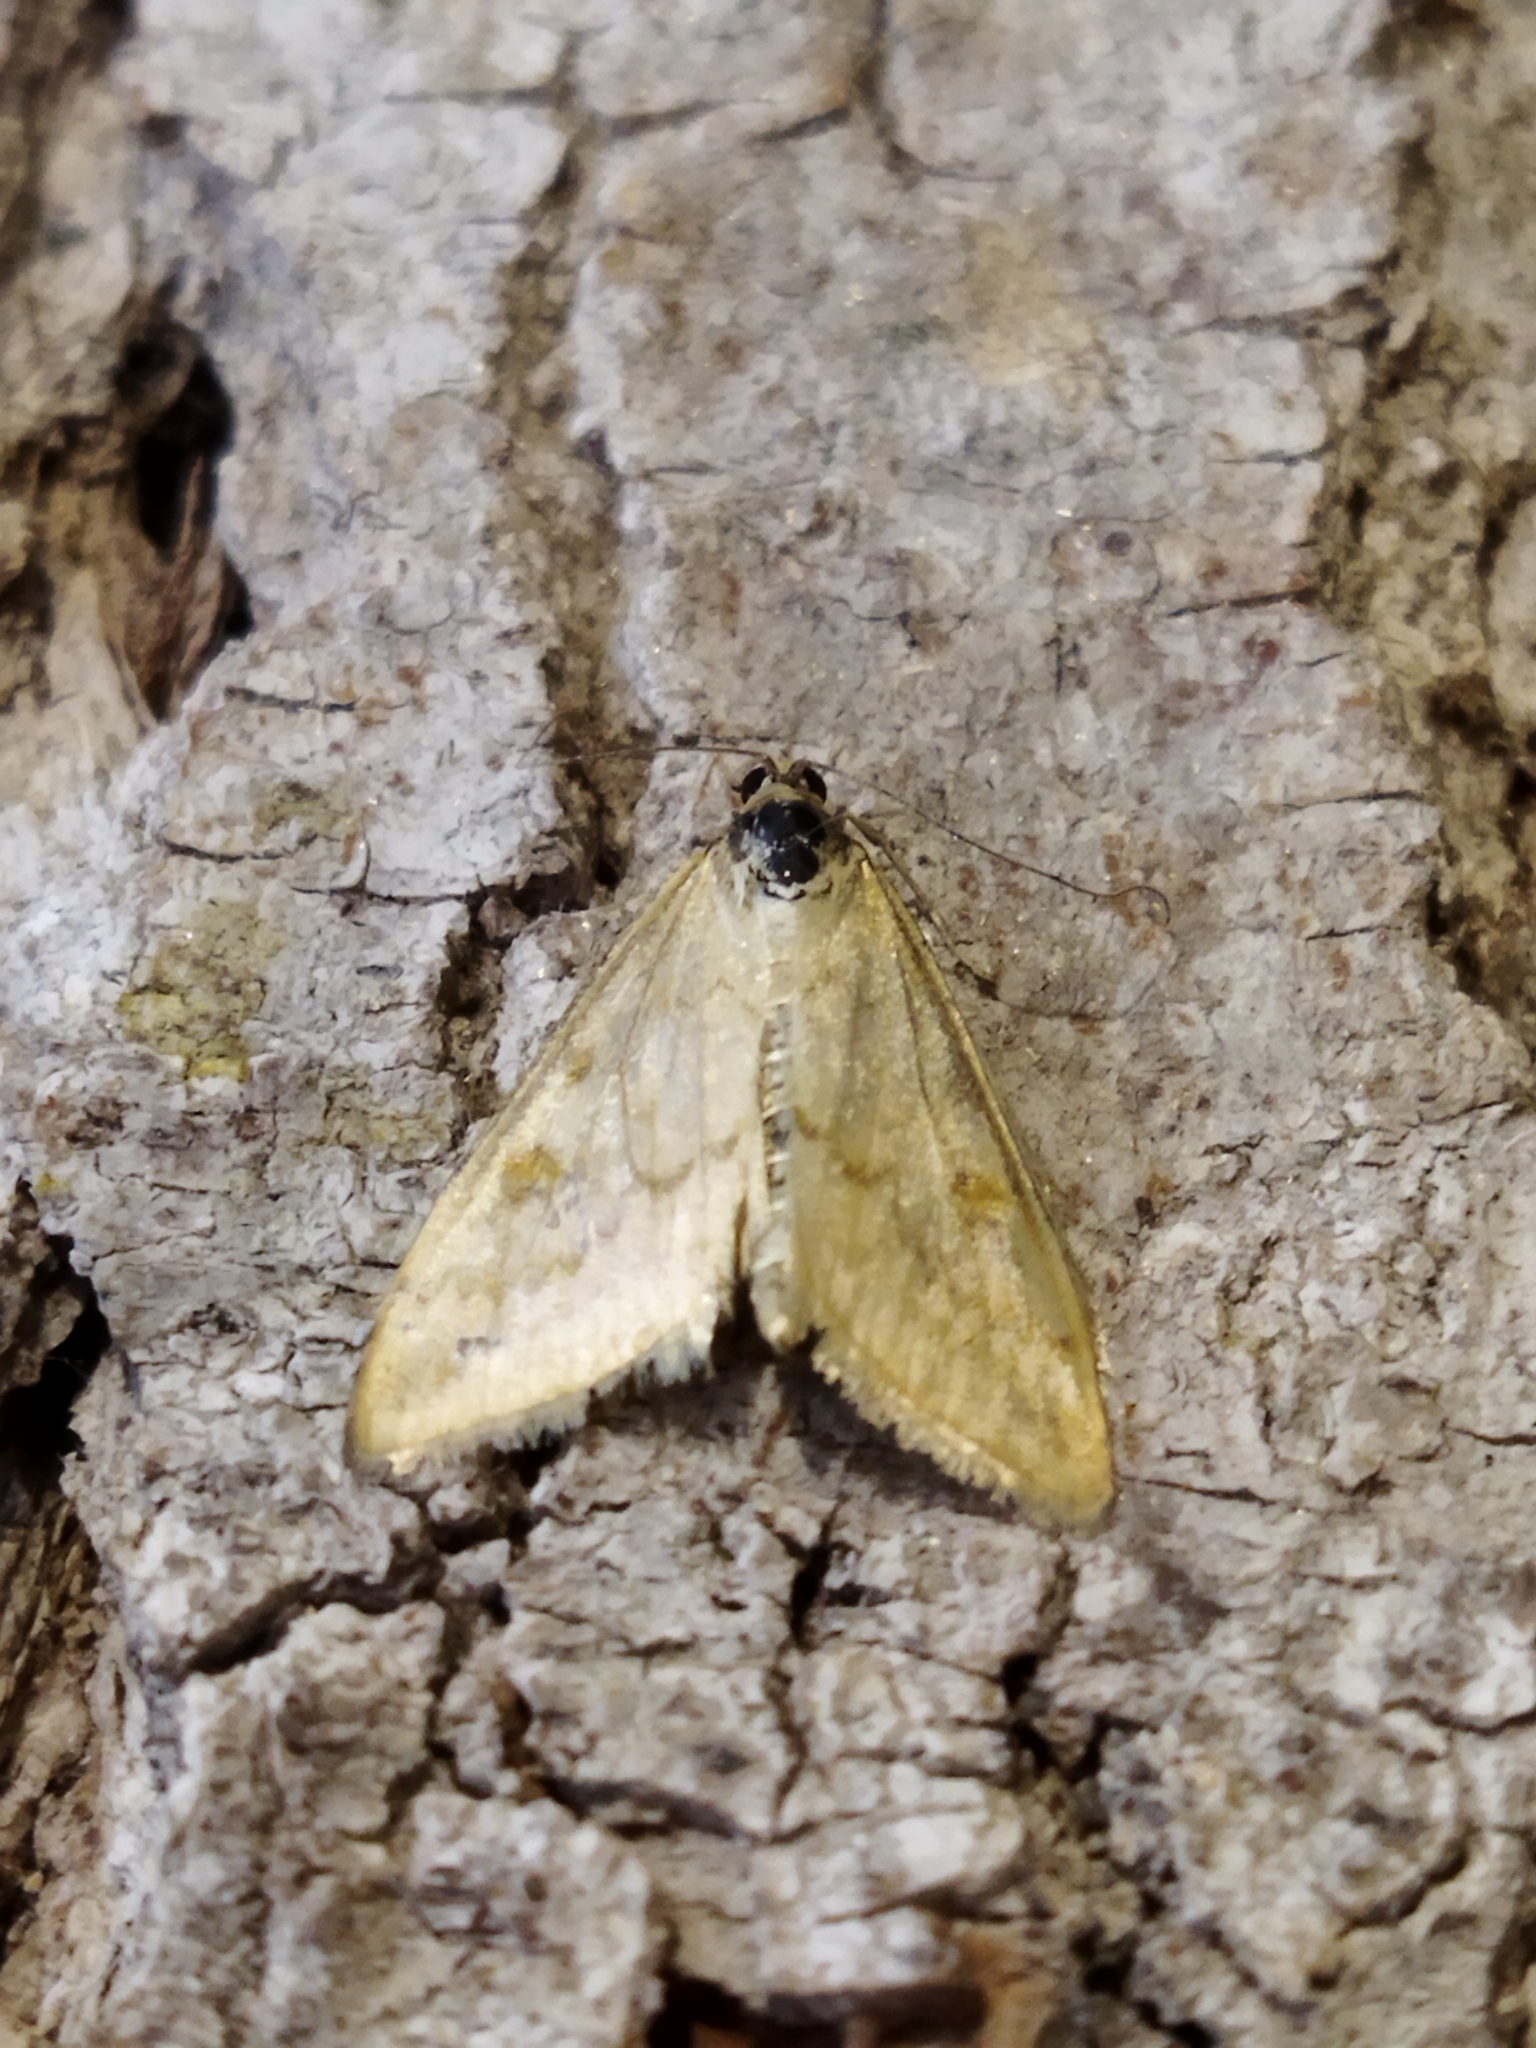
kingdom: Animalia
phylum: Arthropoda
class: Insecta
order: Lepidoptera
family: Crambidae
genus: Sitochroa
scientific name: Sitochroa verticalis
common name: Lesser pearl
